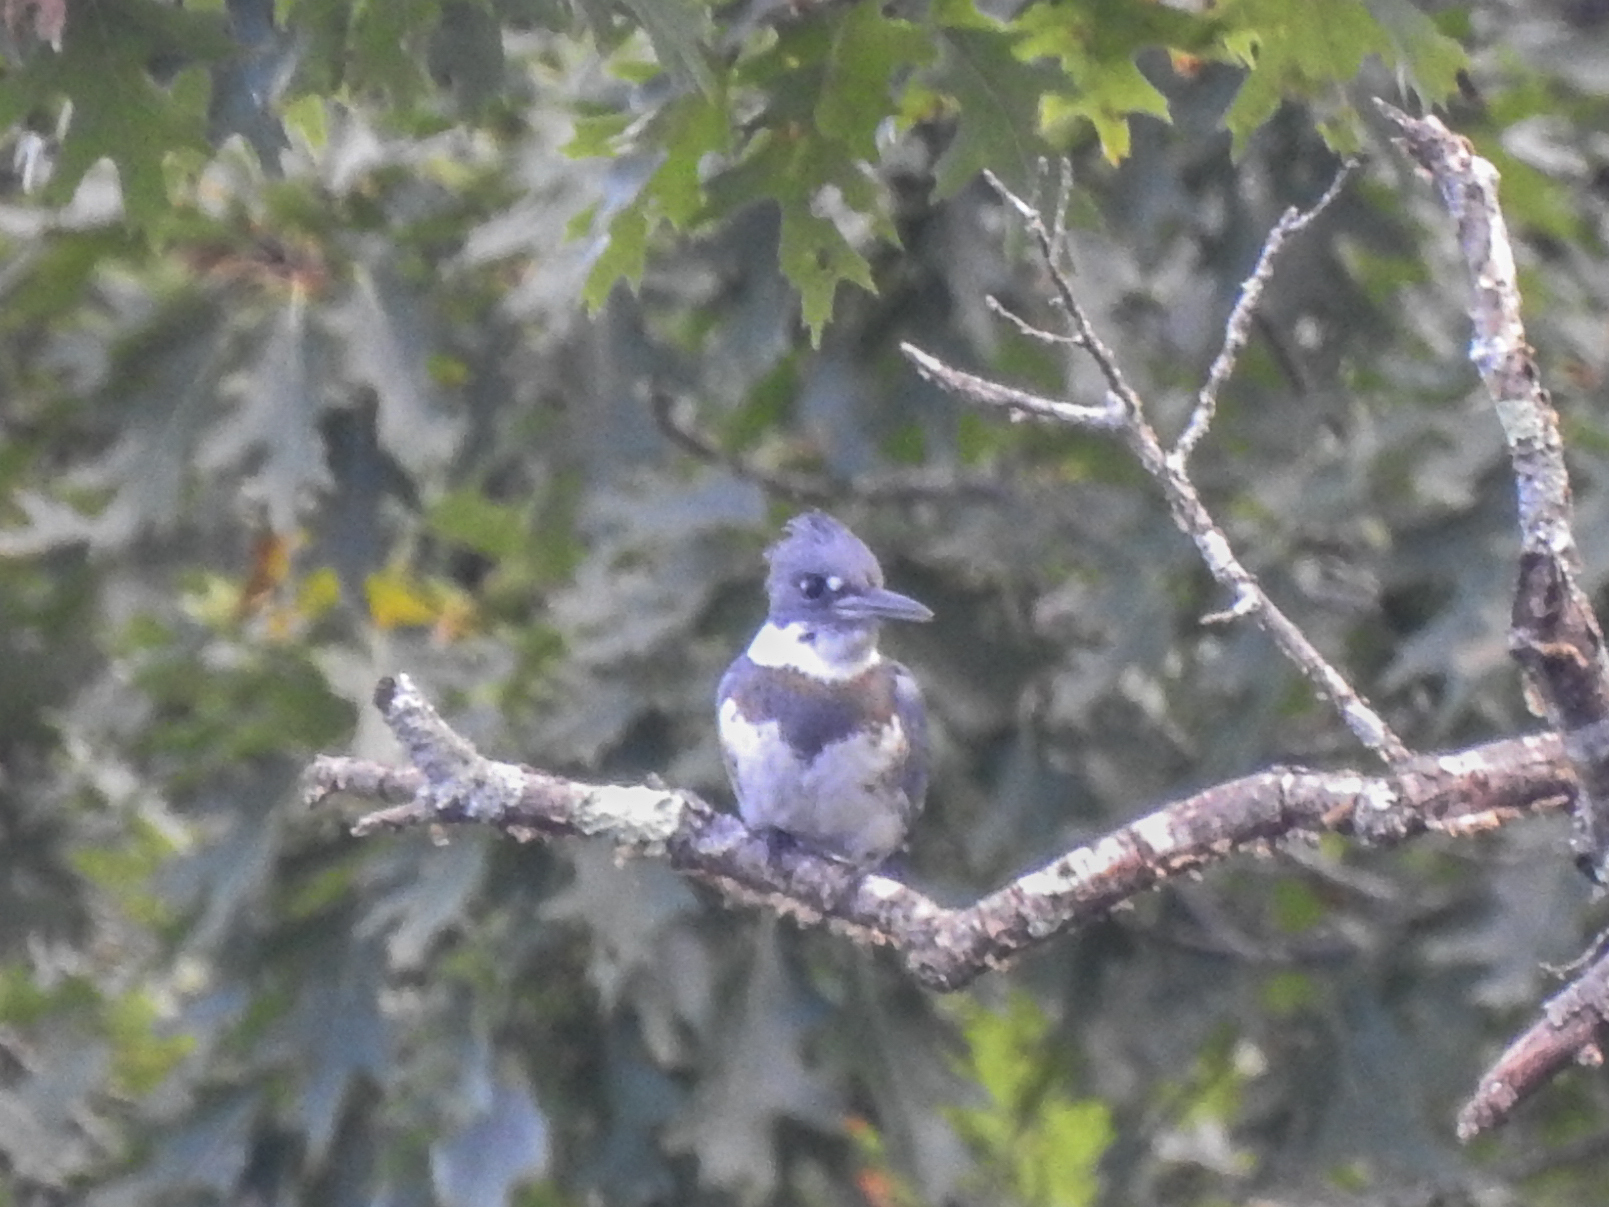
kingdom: Animalia
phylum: Chordata
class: Aves
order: Coraciiformes
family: Alcedinidae
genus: Megaceryle
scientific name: Megaceryle alcyon
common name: Belted kingfisher
